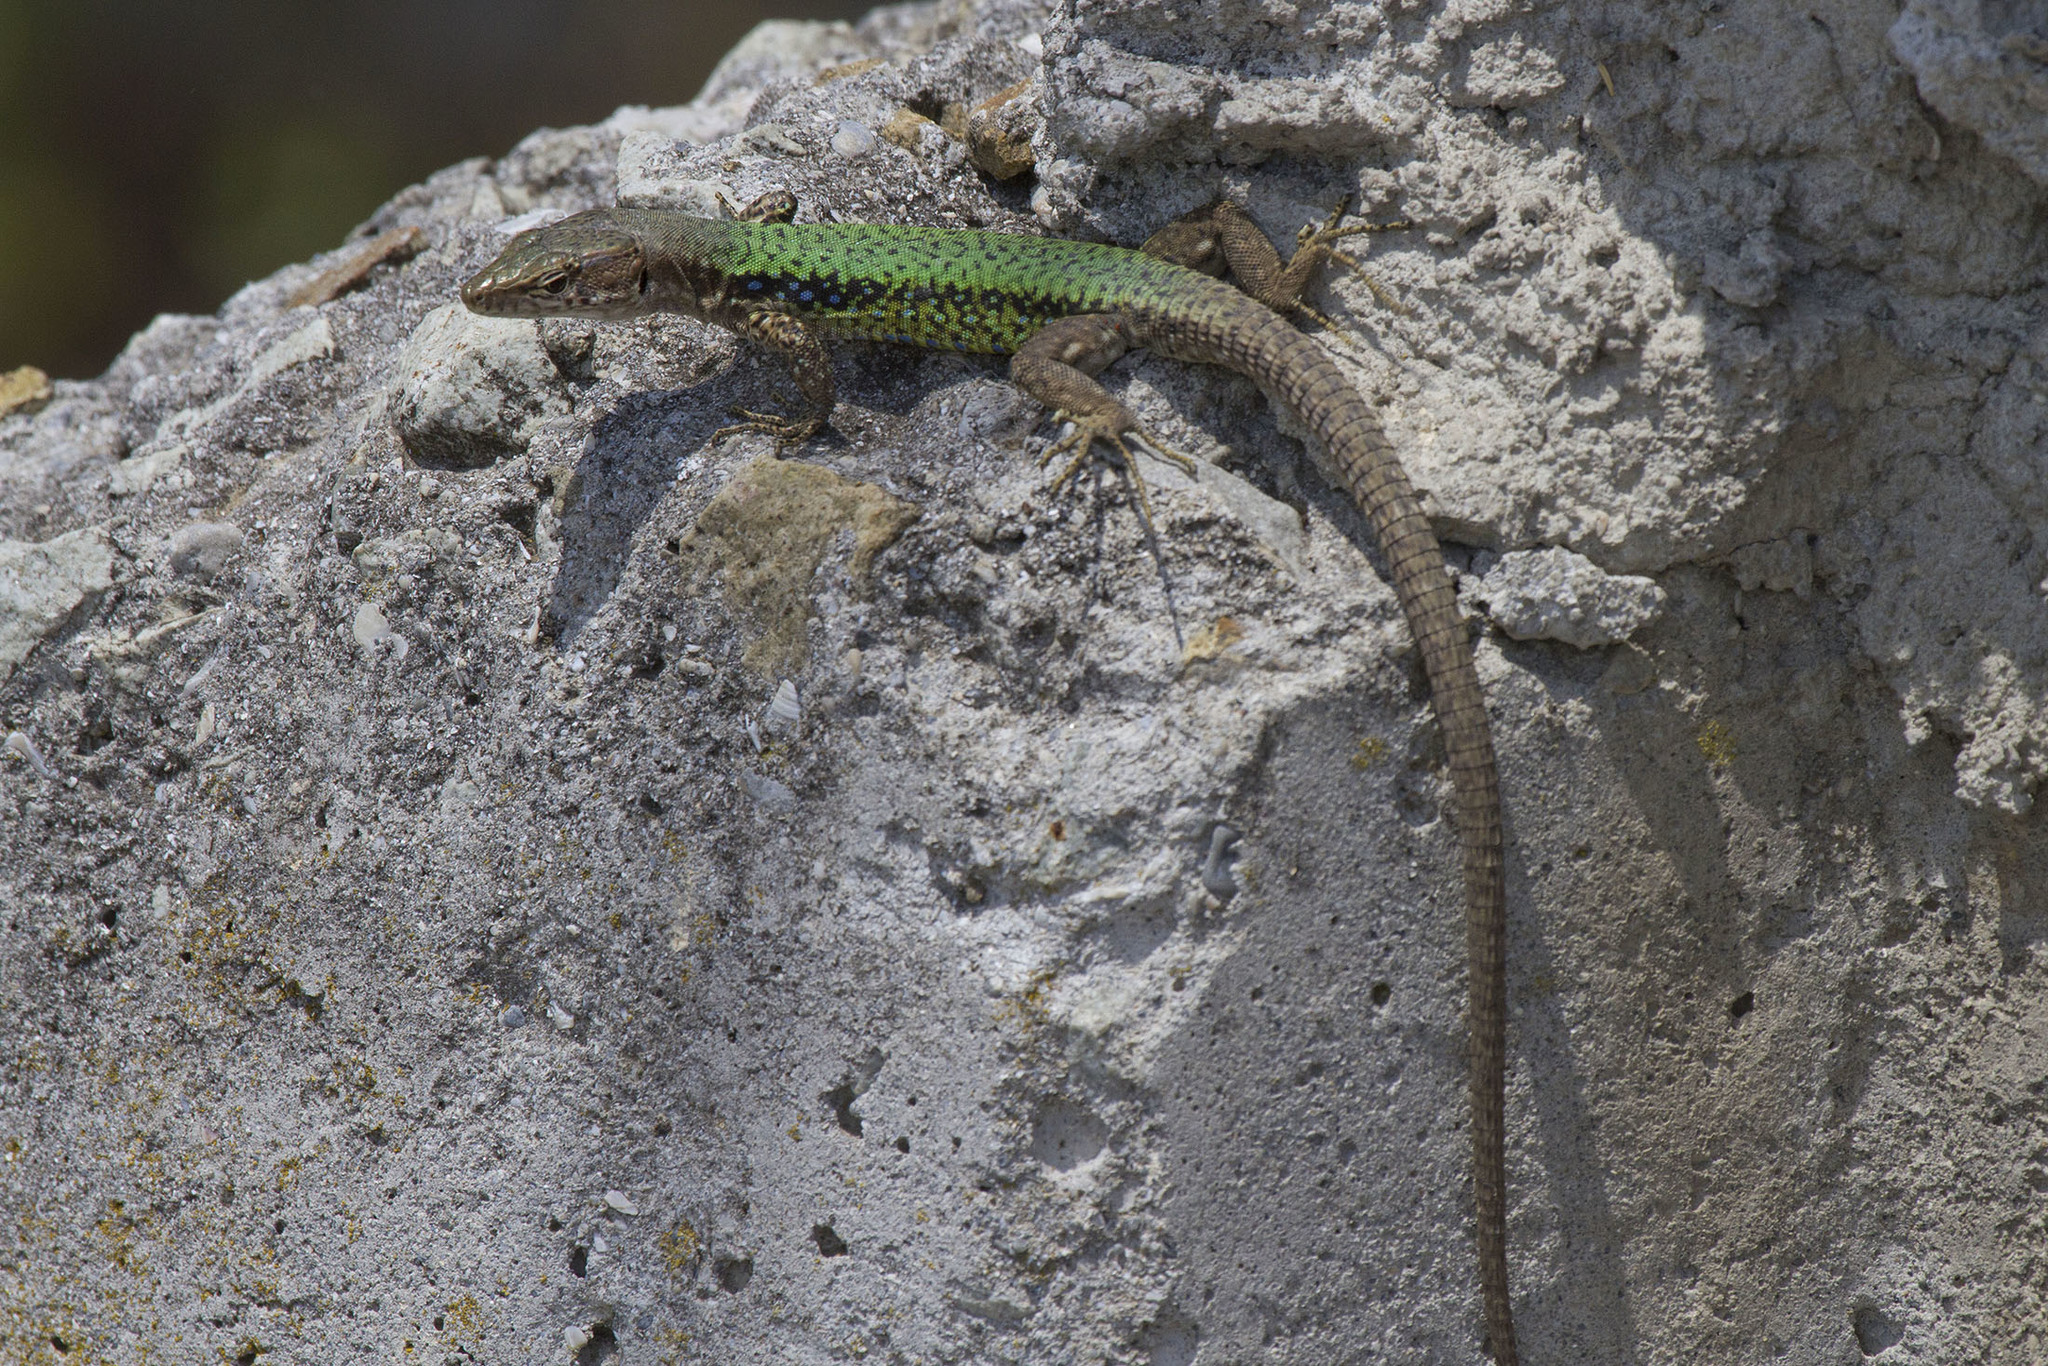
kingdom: Animalia
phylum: Chordata
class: Squamata
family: Lacertidae
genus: Darevskia
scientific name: Darevskia lindholmi
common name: Crimean rock lizard
